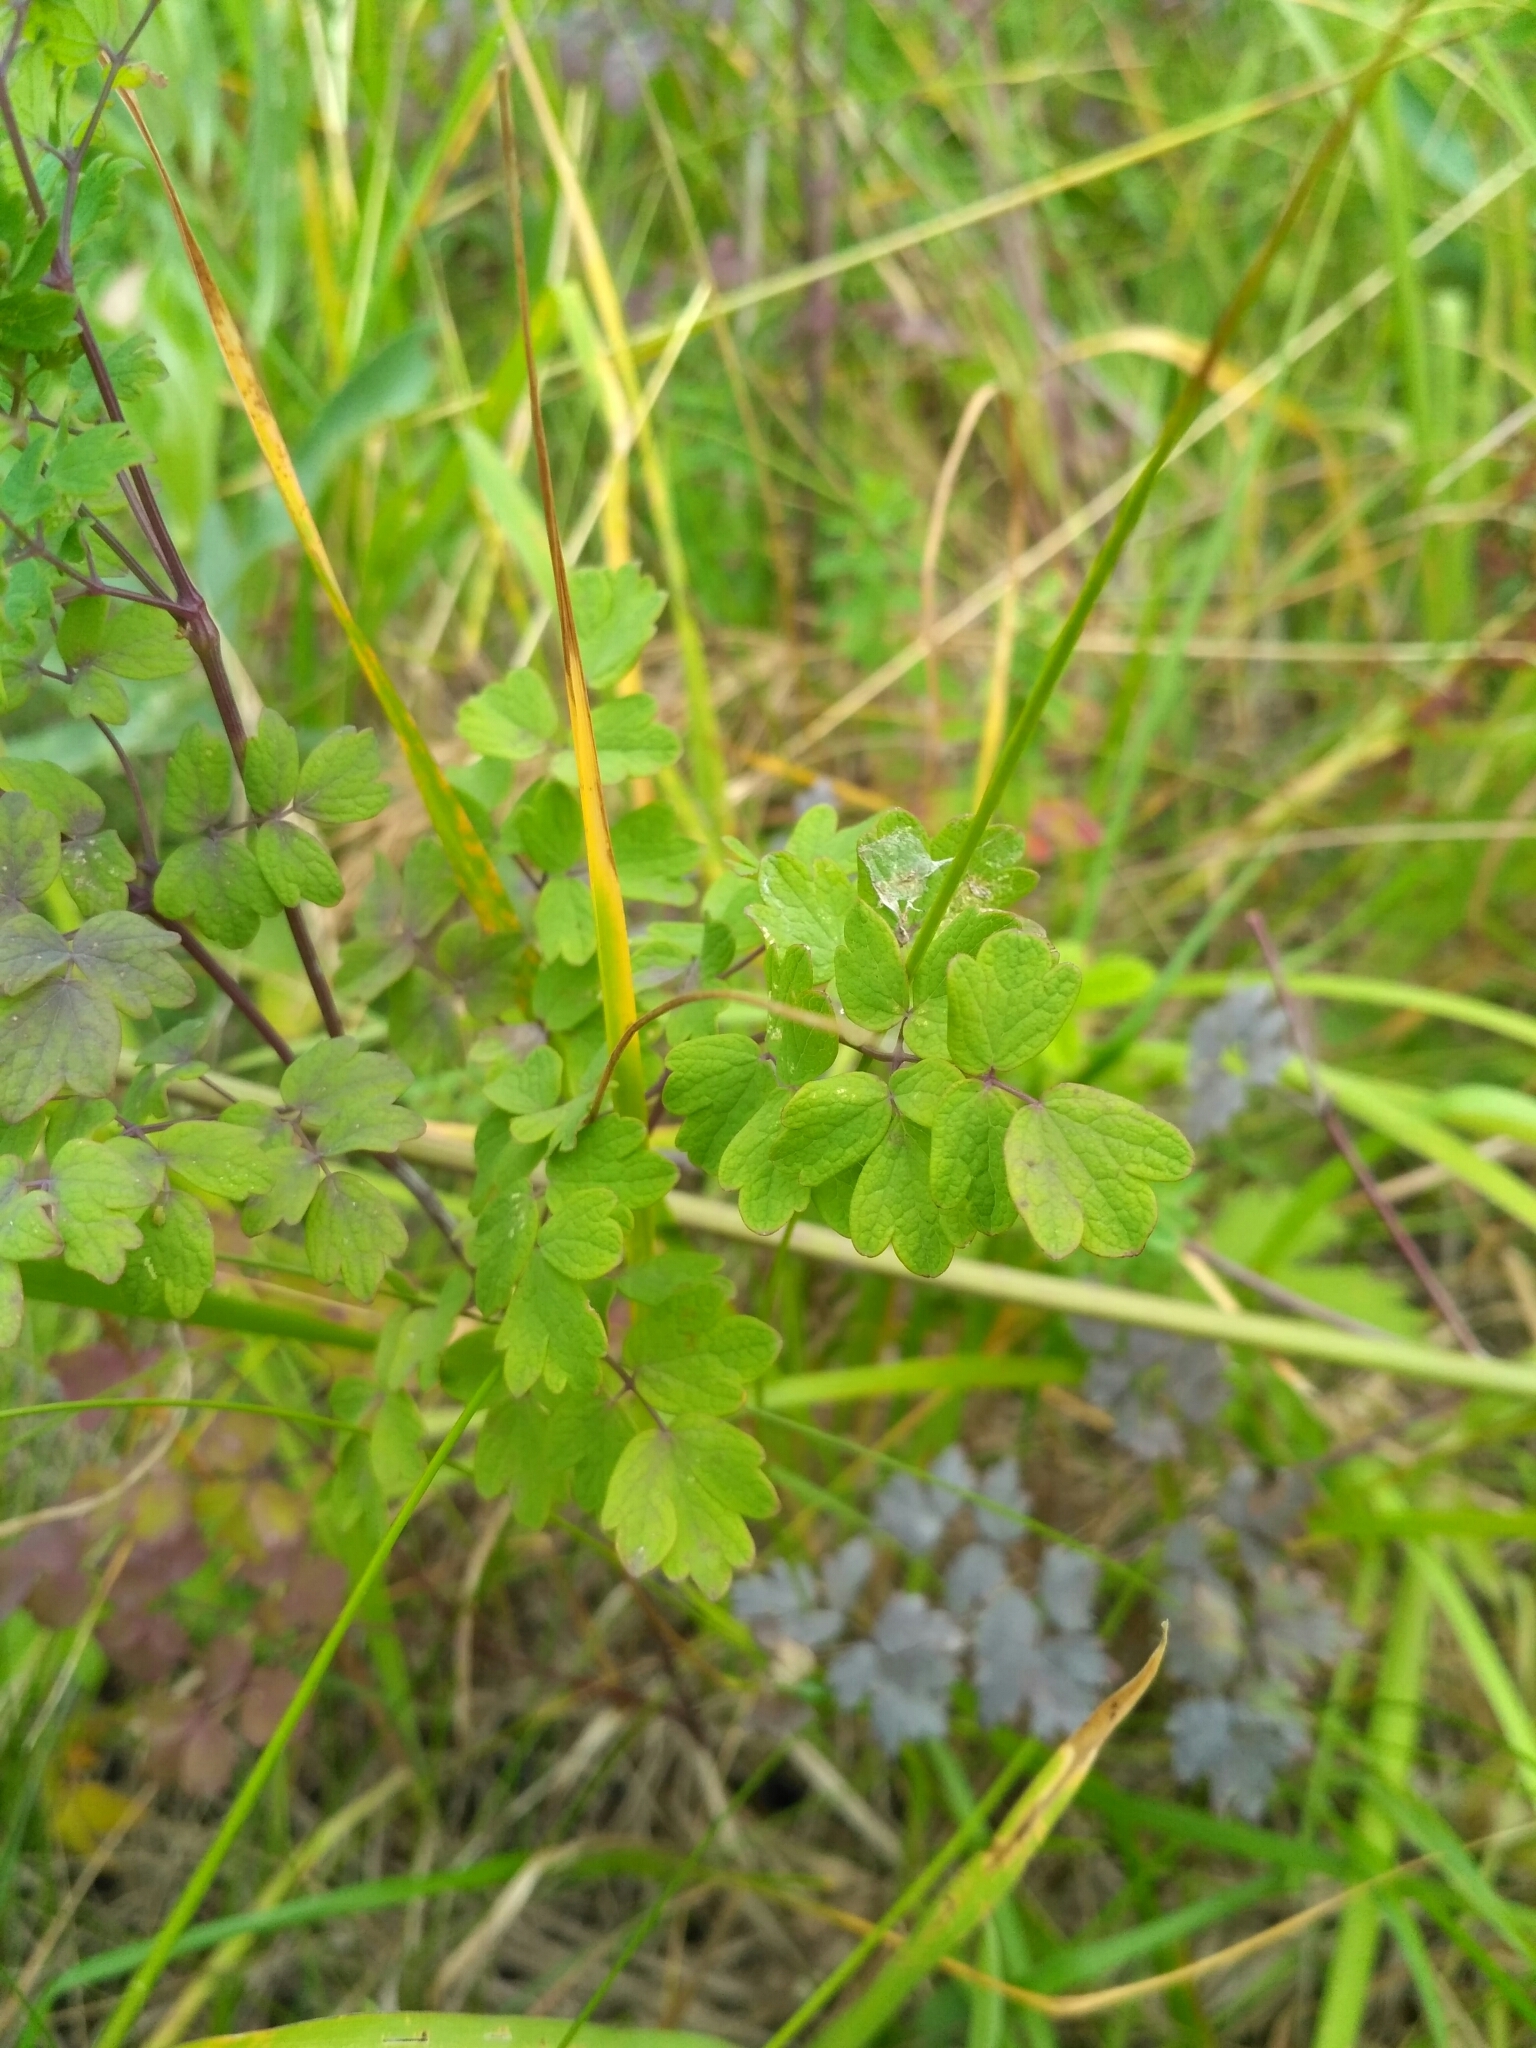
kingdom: Plantae
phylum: Tracheophyta
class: Magnoliopsida
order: Ranunculales
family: Ranunculaceae
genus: Thalictrum
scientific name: Thalictrum minus
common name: Lesser meadow-rue
